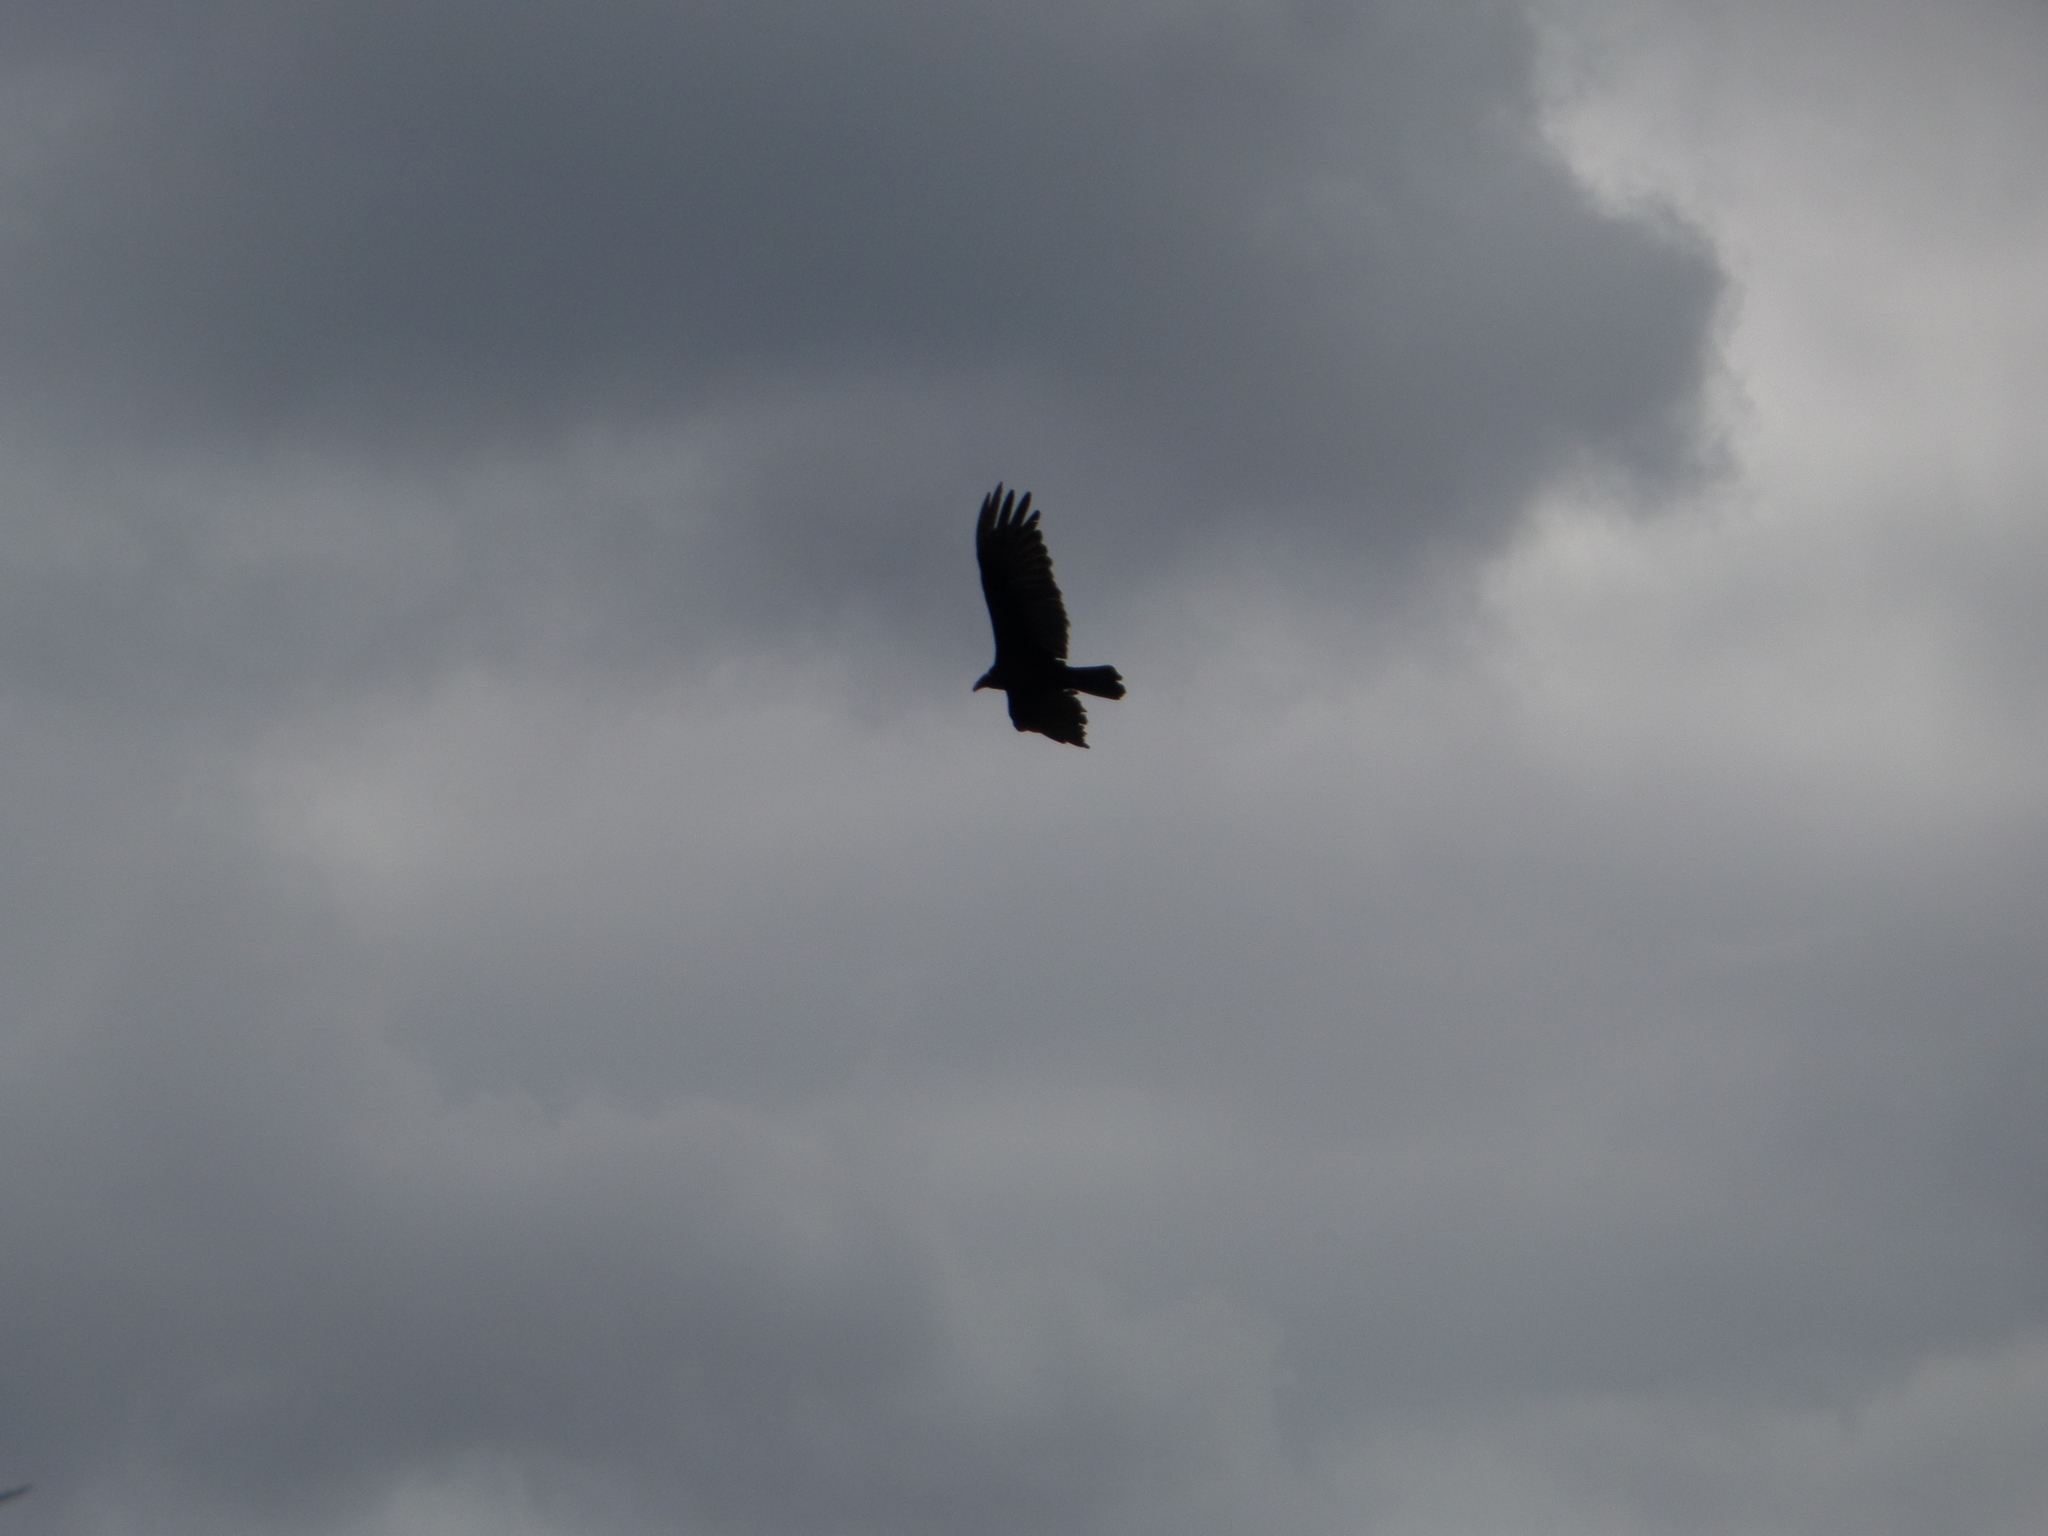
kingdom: Animalia
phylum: Chordata
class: Aves
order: Accipitriformes
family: Cathartidae
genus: Cathartes
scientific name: Cathartes aura
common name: Turkey vulture
